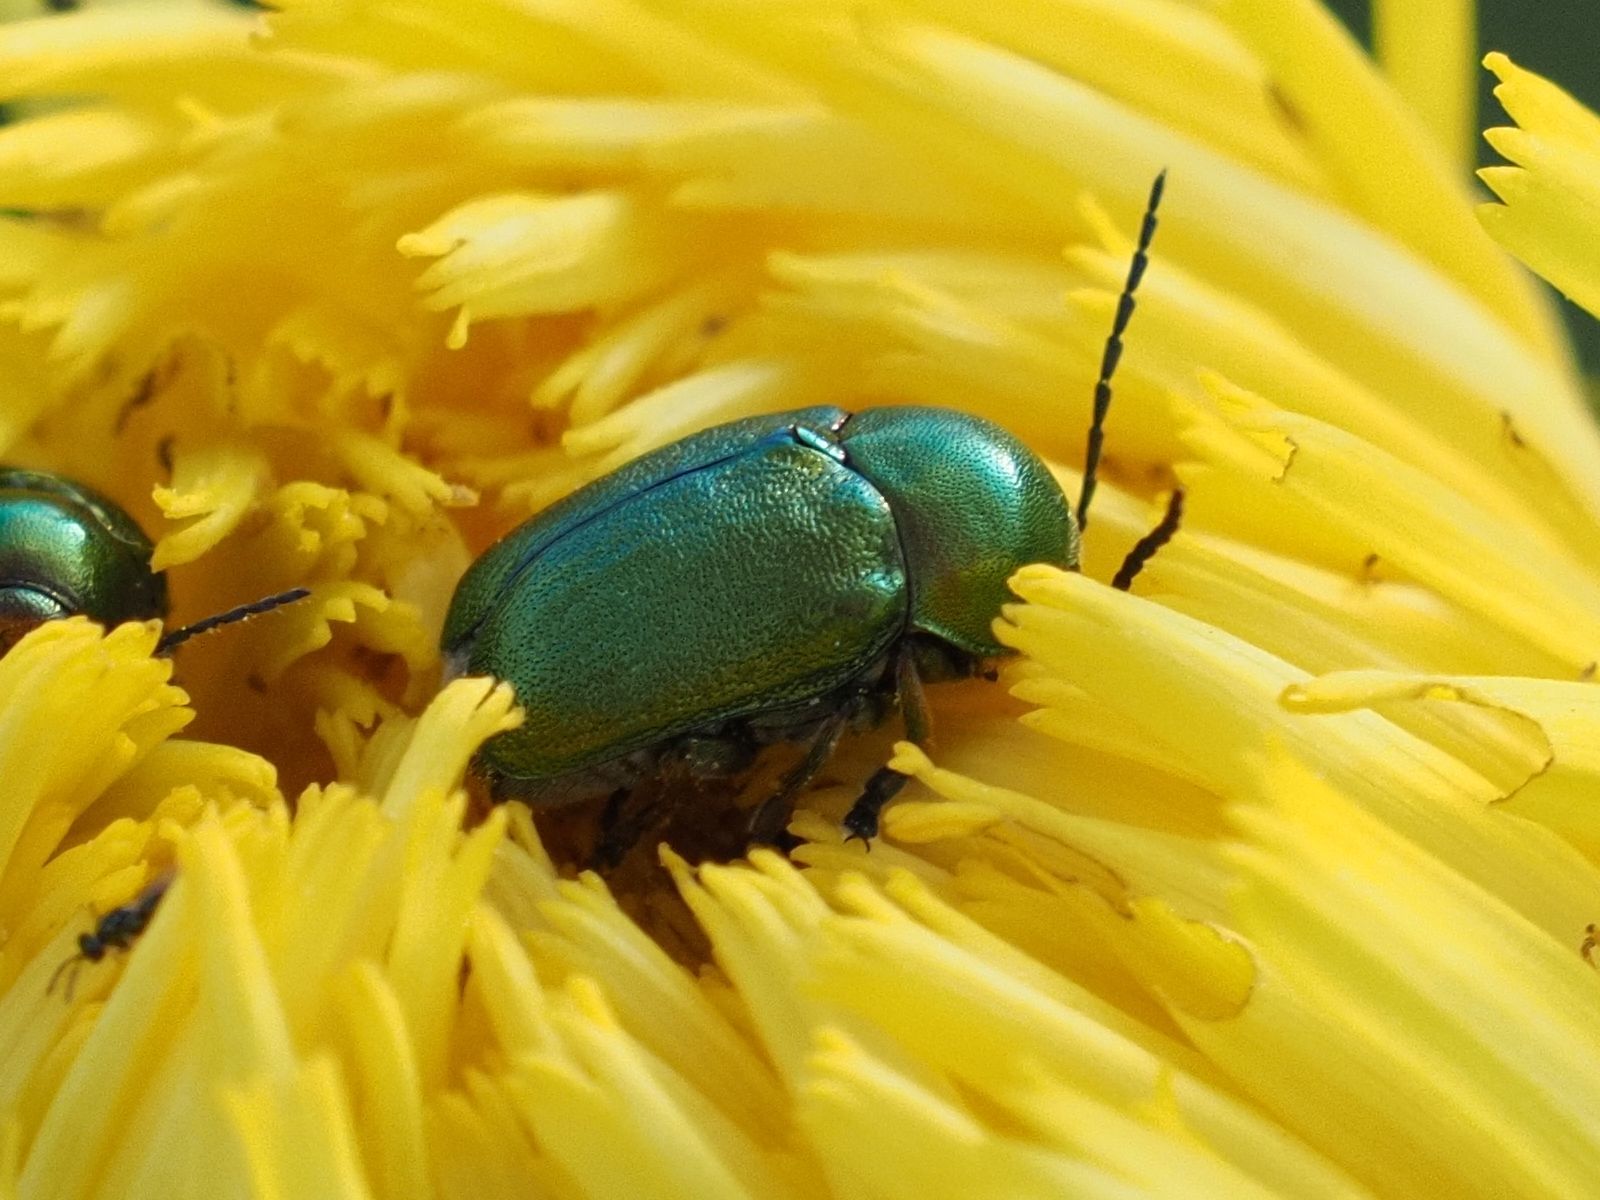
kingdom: Animalia
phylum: Arthropoda
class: Insecta
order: Coleoptera
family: Chrysomelidae
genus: Cryptocephalus
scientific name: Cryptocephalus
